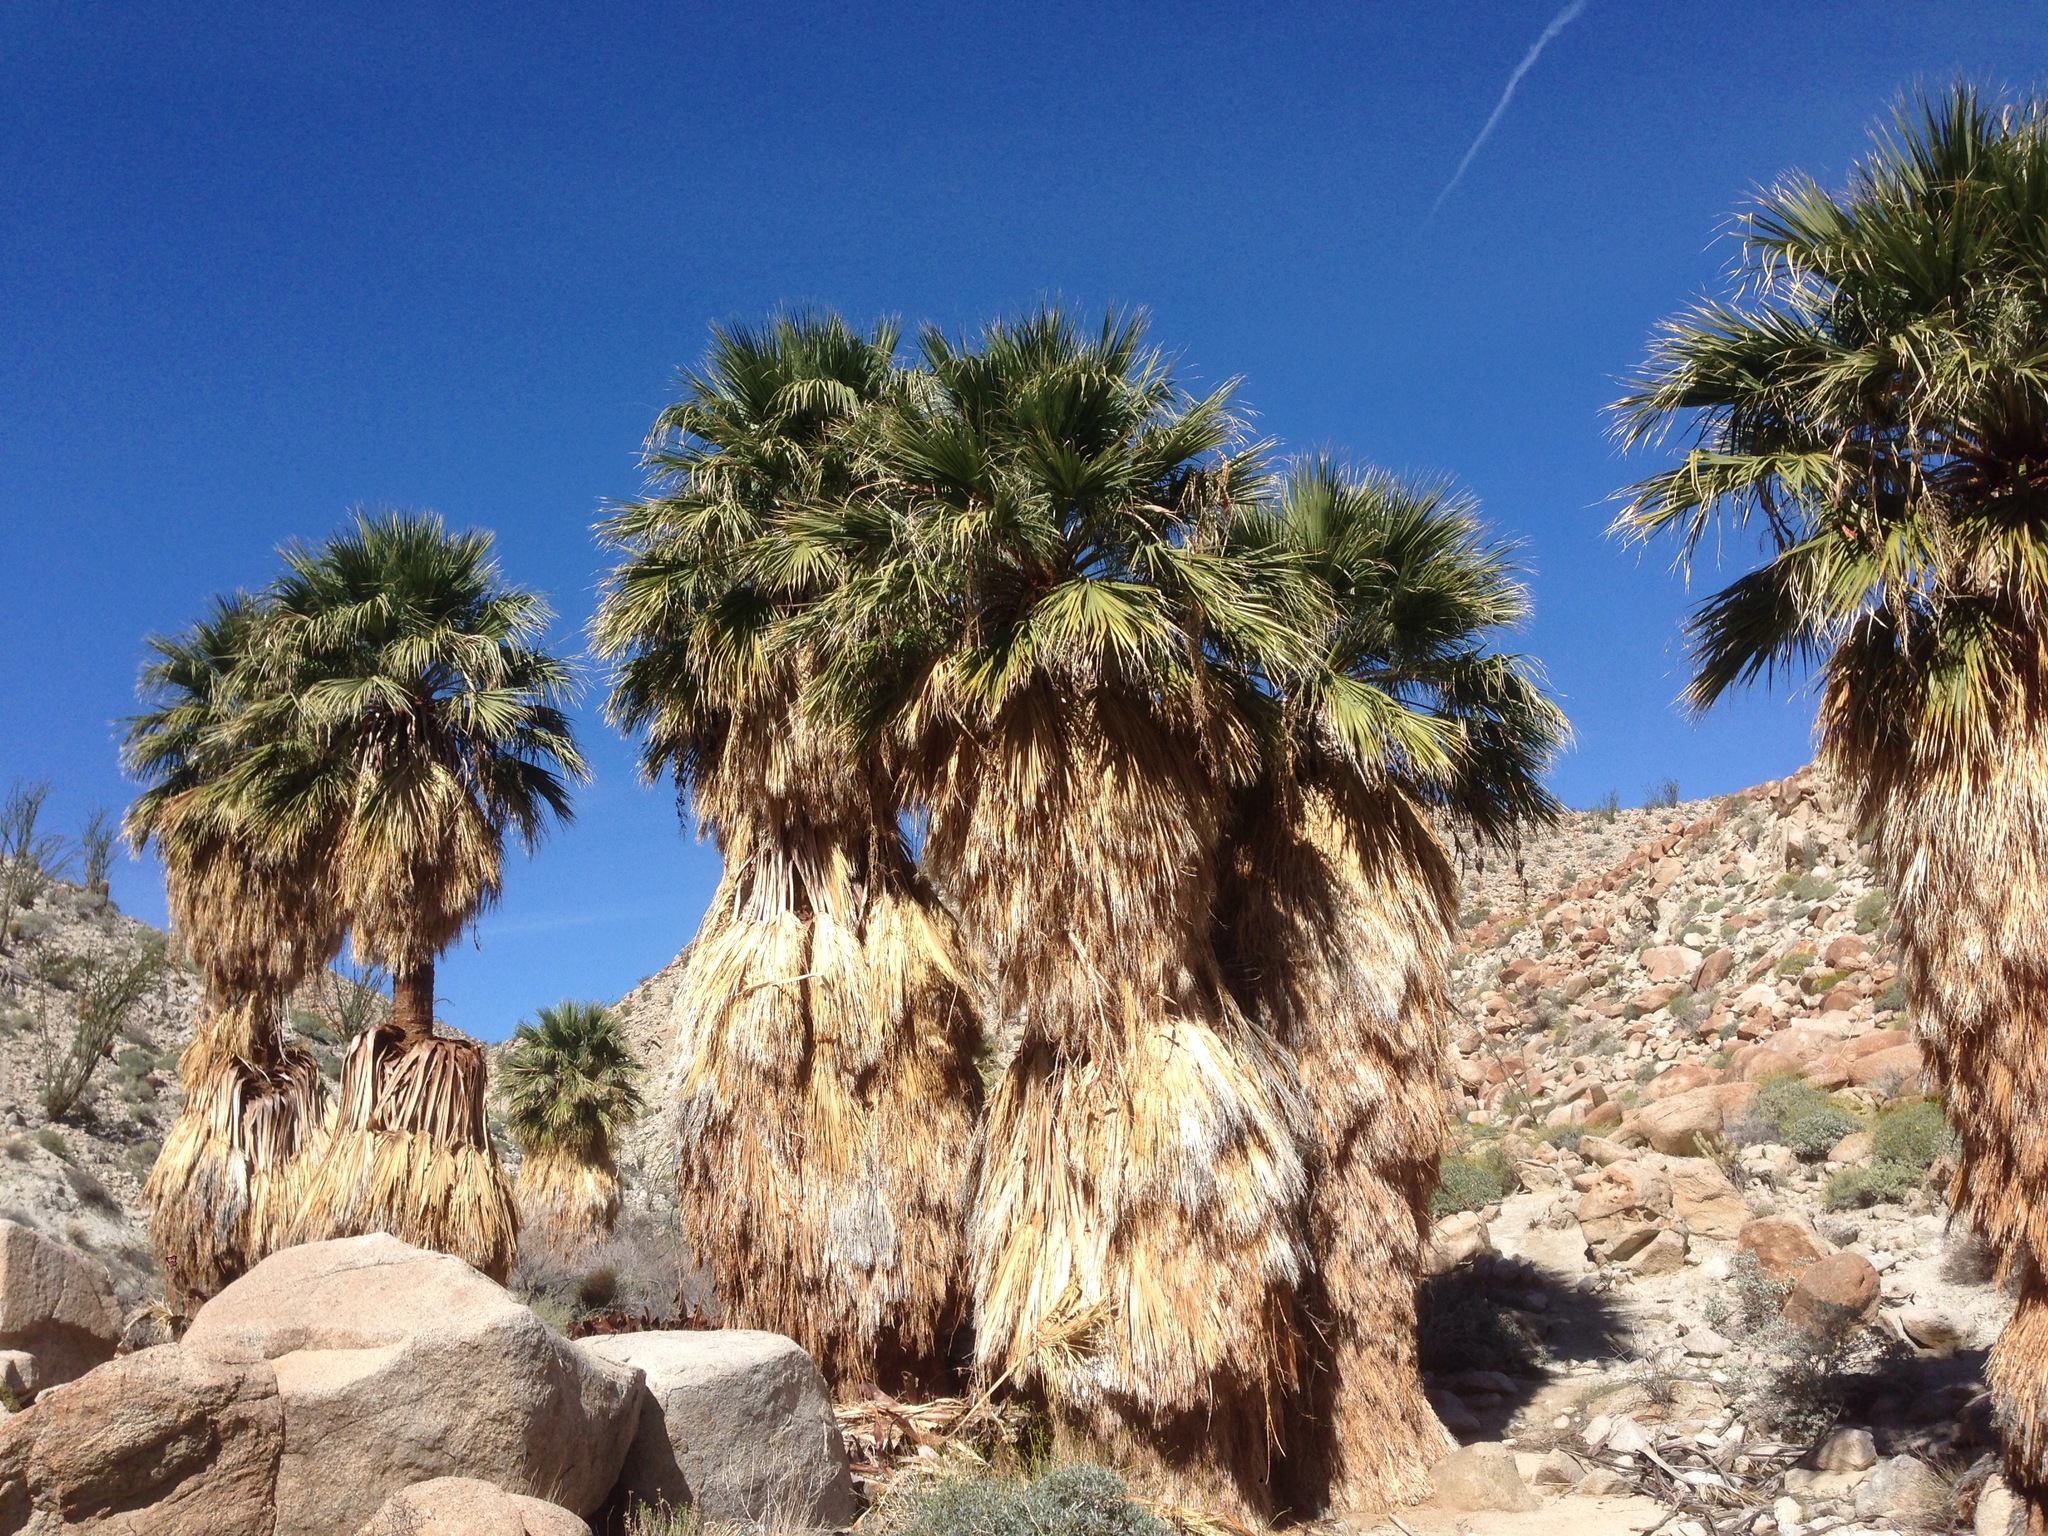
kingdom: Plantae
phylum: Tracheophyta
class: Liliopsida
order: Arecales
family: Arecaceae
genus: Washingtonia
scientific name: Washingtonia filifera
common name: California fan palm
